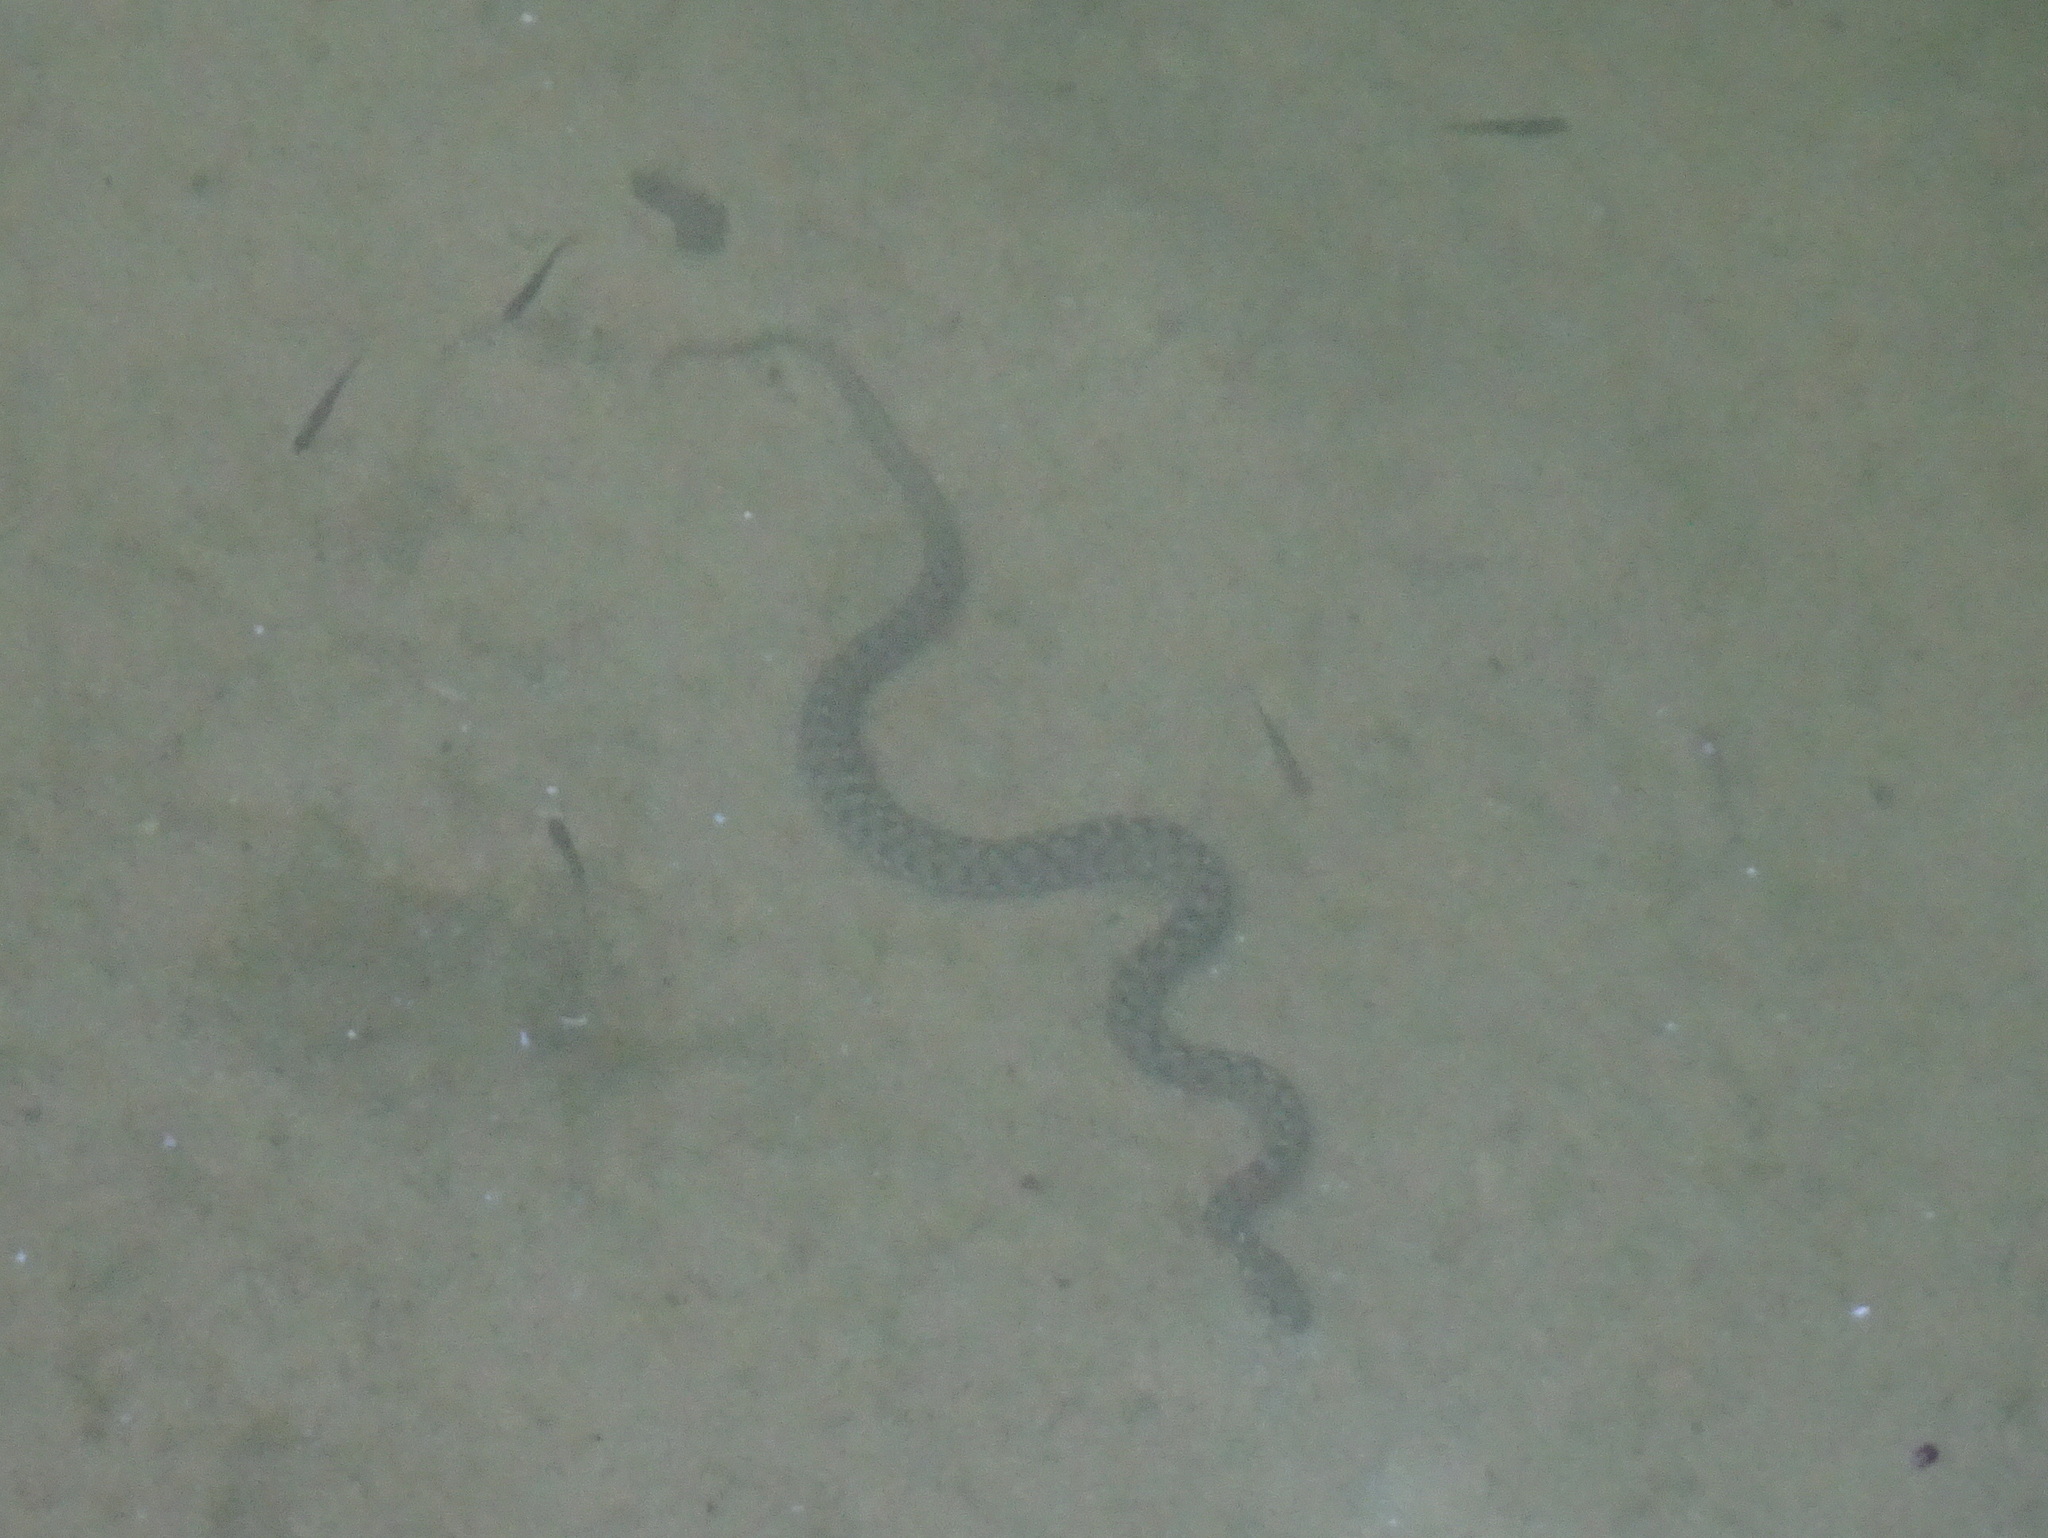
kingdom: Animalia
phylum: Chordata
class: Squamata
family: Colubridae
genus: Natrix
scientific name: Natrix maura
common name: Viperine water snake
